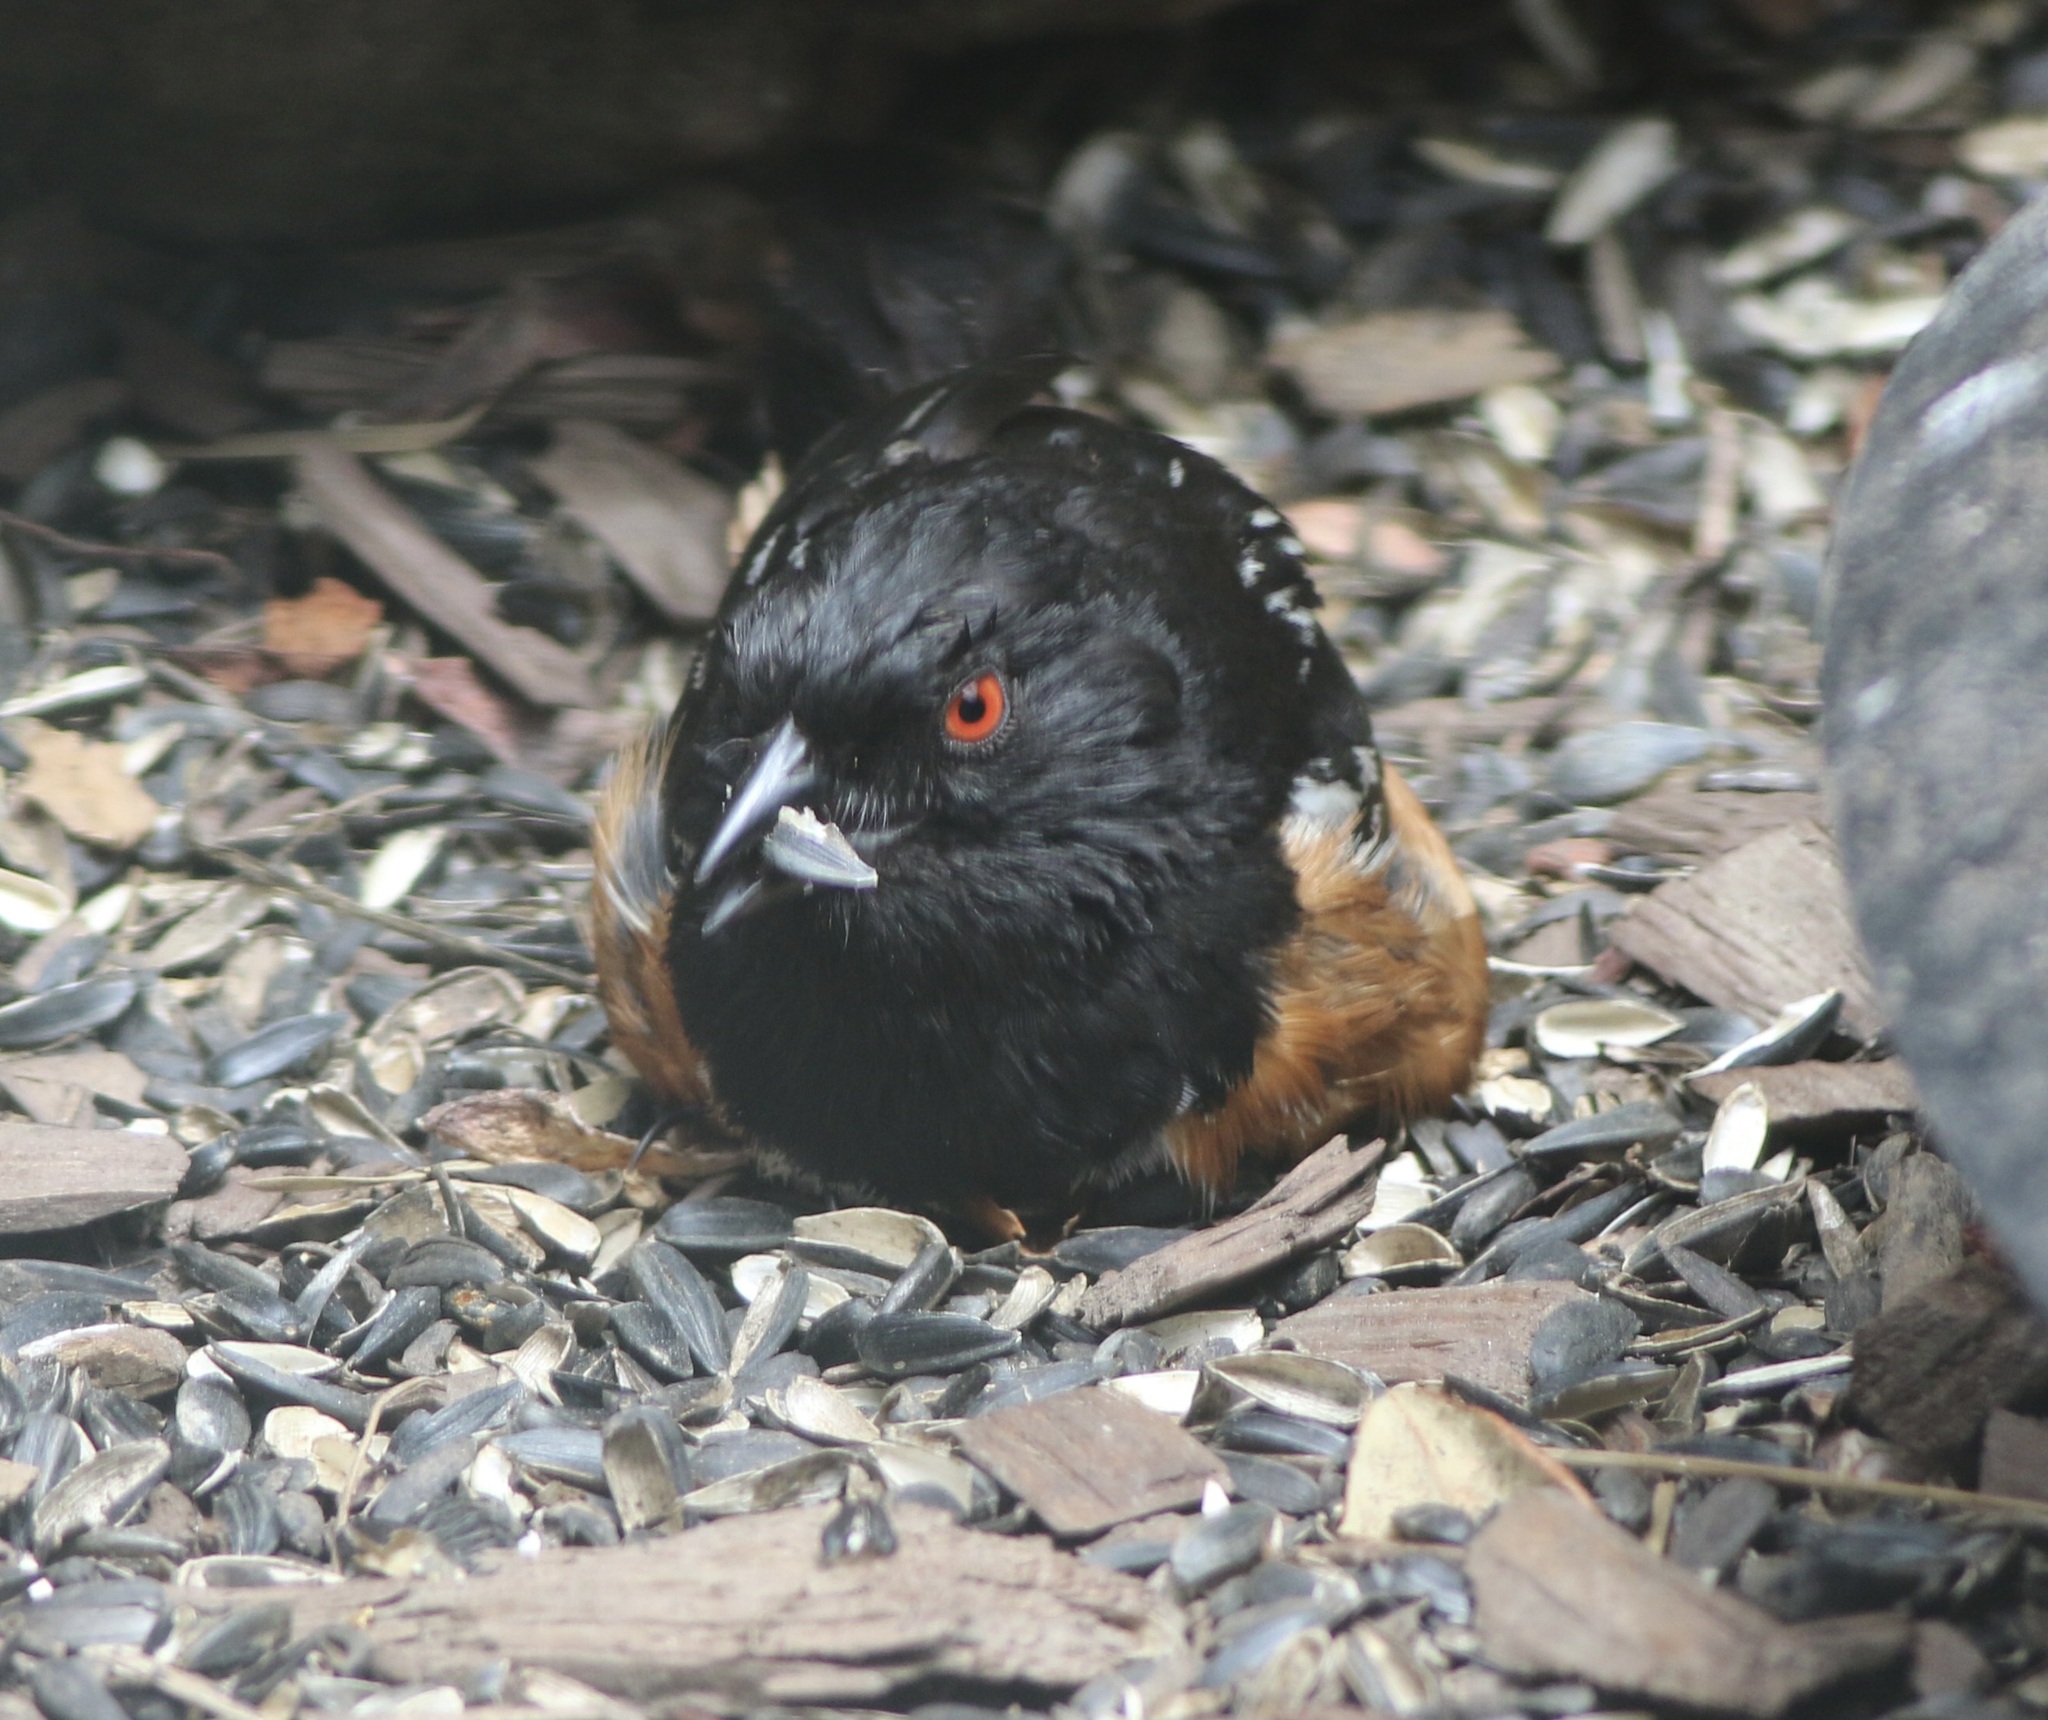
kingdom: Animalia
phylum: Chordata
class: Aves
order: Passeriformes
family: Passerellidae
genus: Pipilo
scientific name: Pipilo maculatus
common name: Spotted towhee
